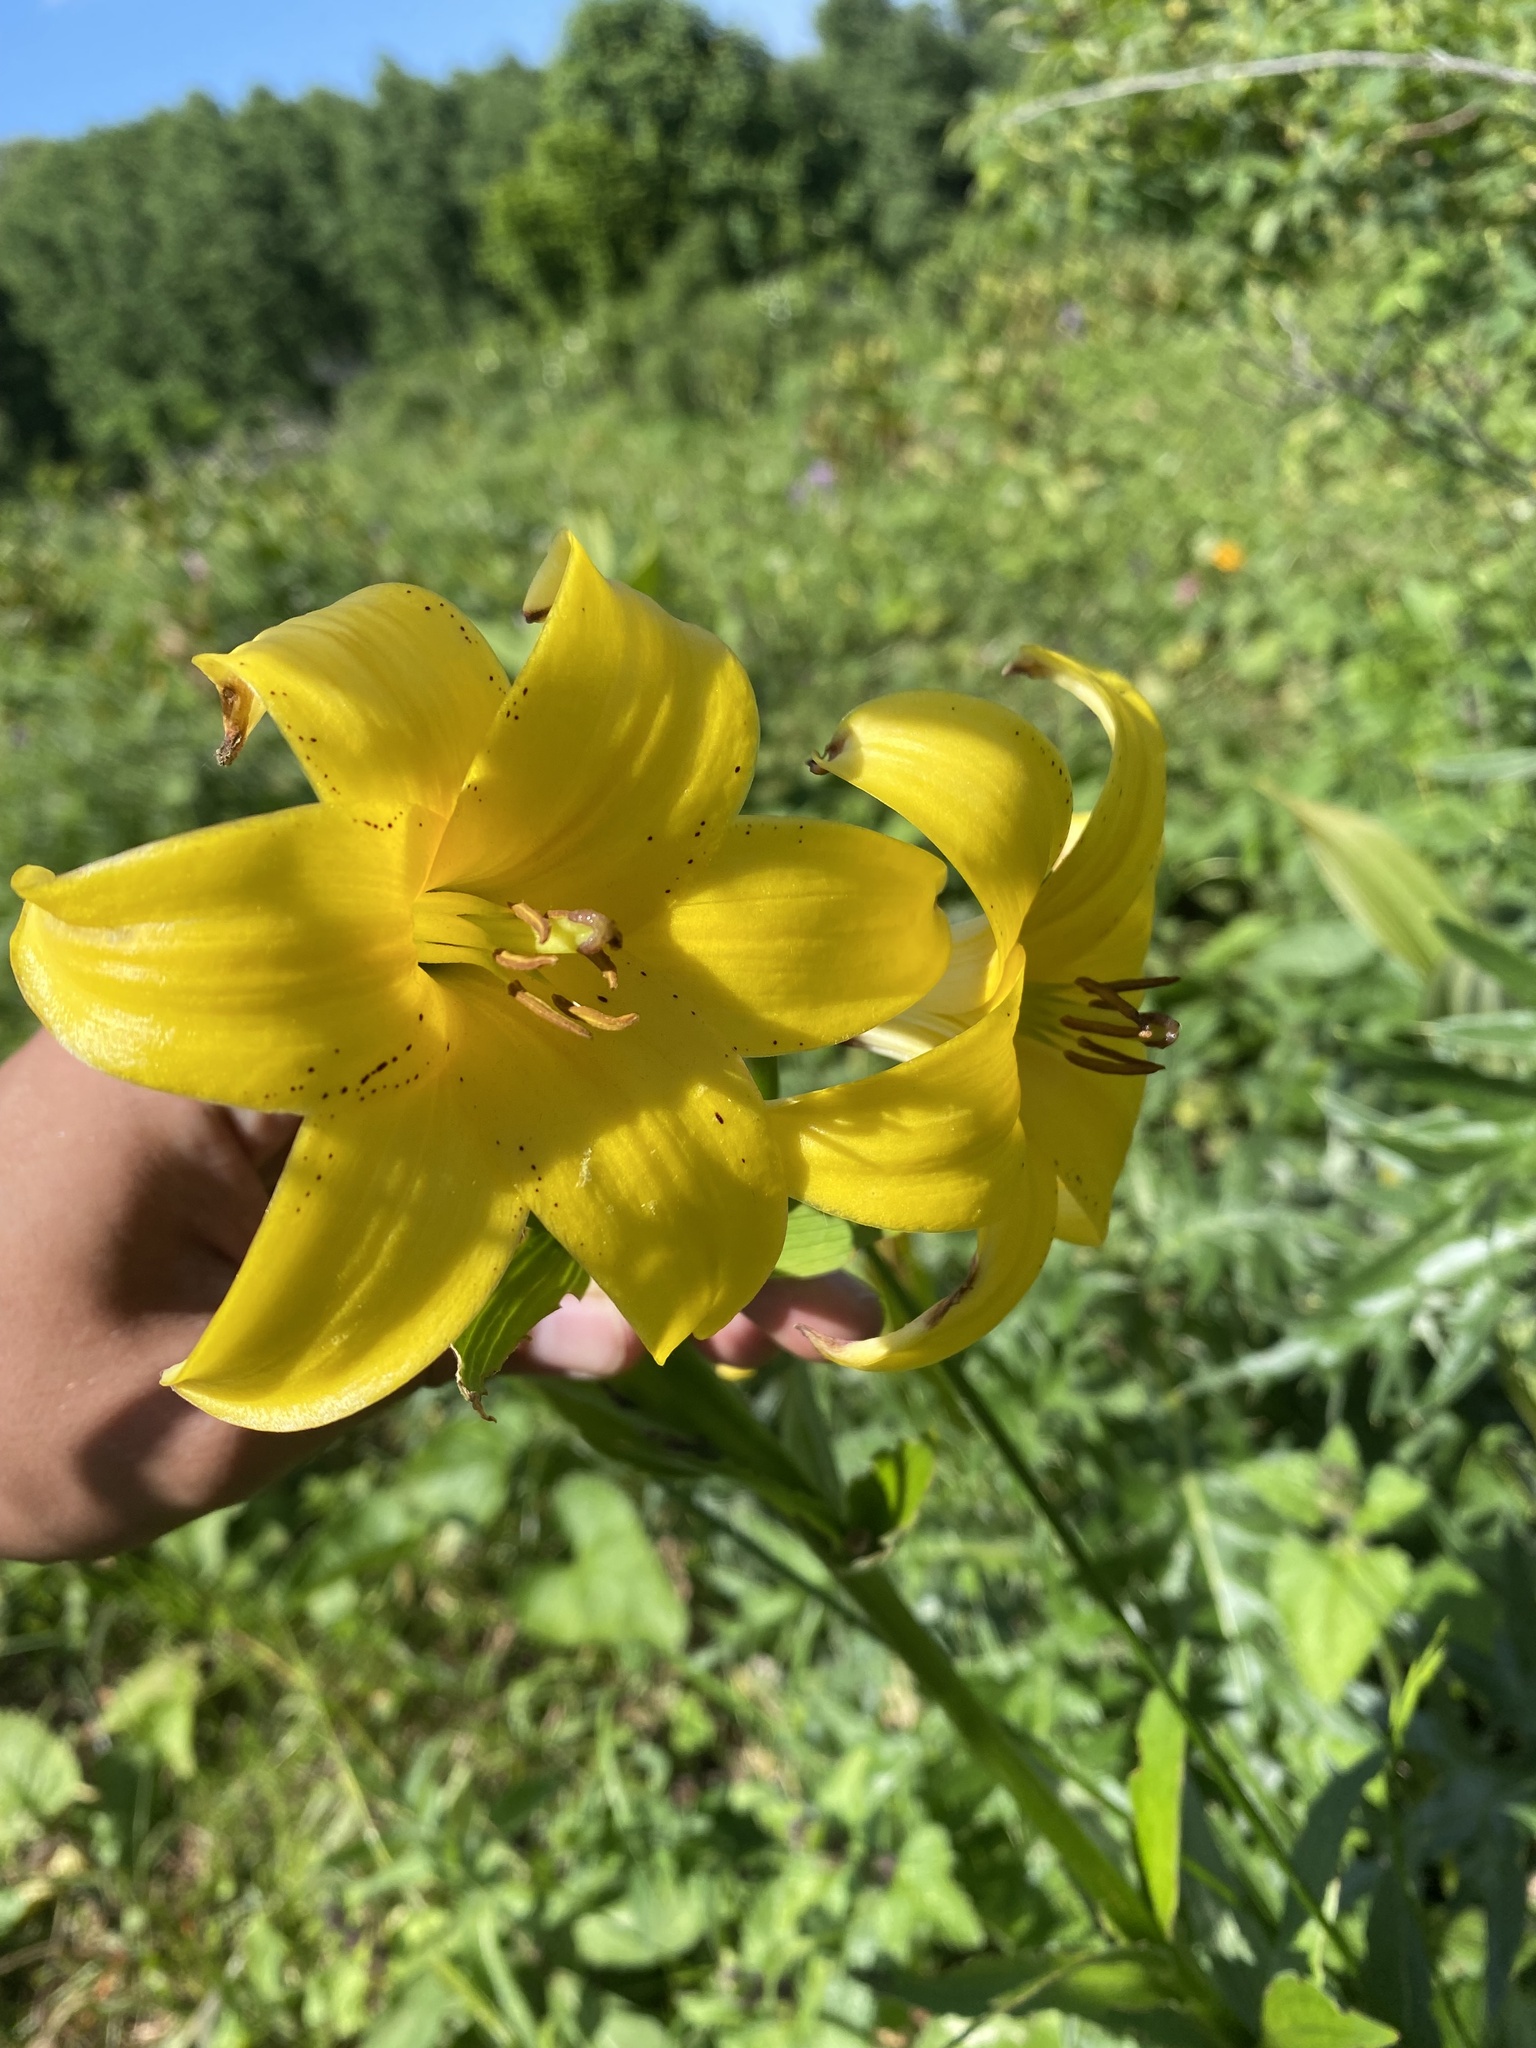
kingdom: Plantae
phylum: Tracheophyta
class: Liliopsida
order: Liliales
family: Liliaceae
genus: Lilium
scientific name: Lilium monadelphum
